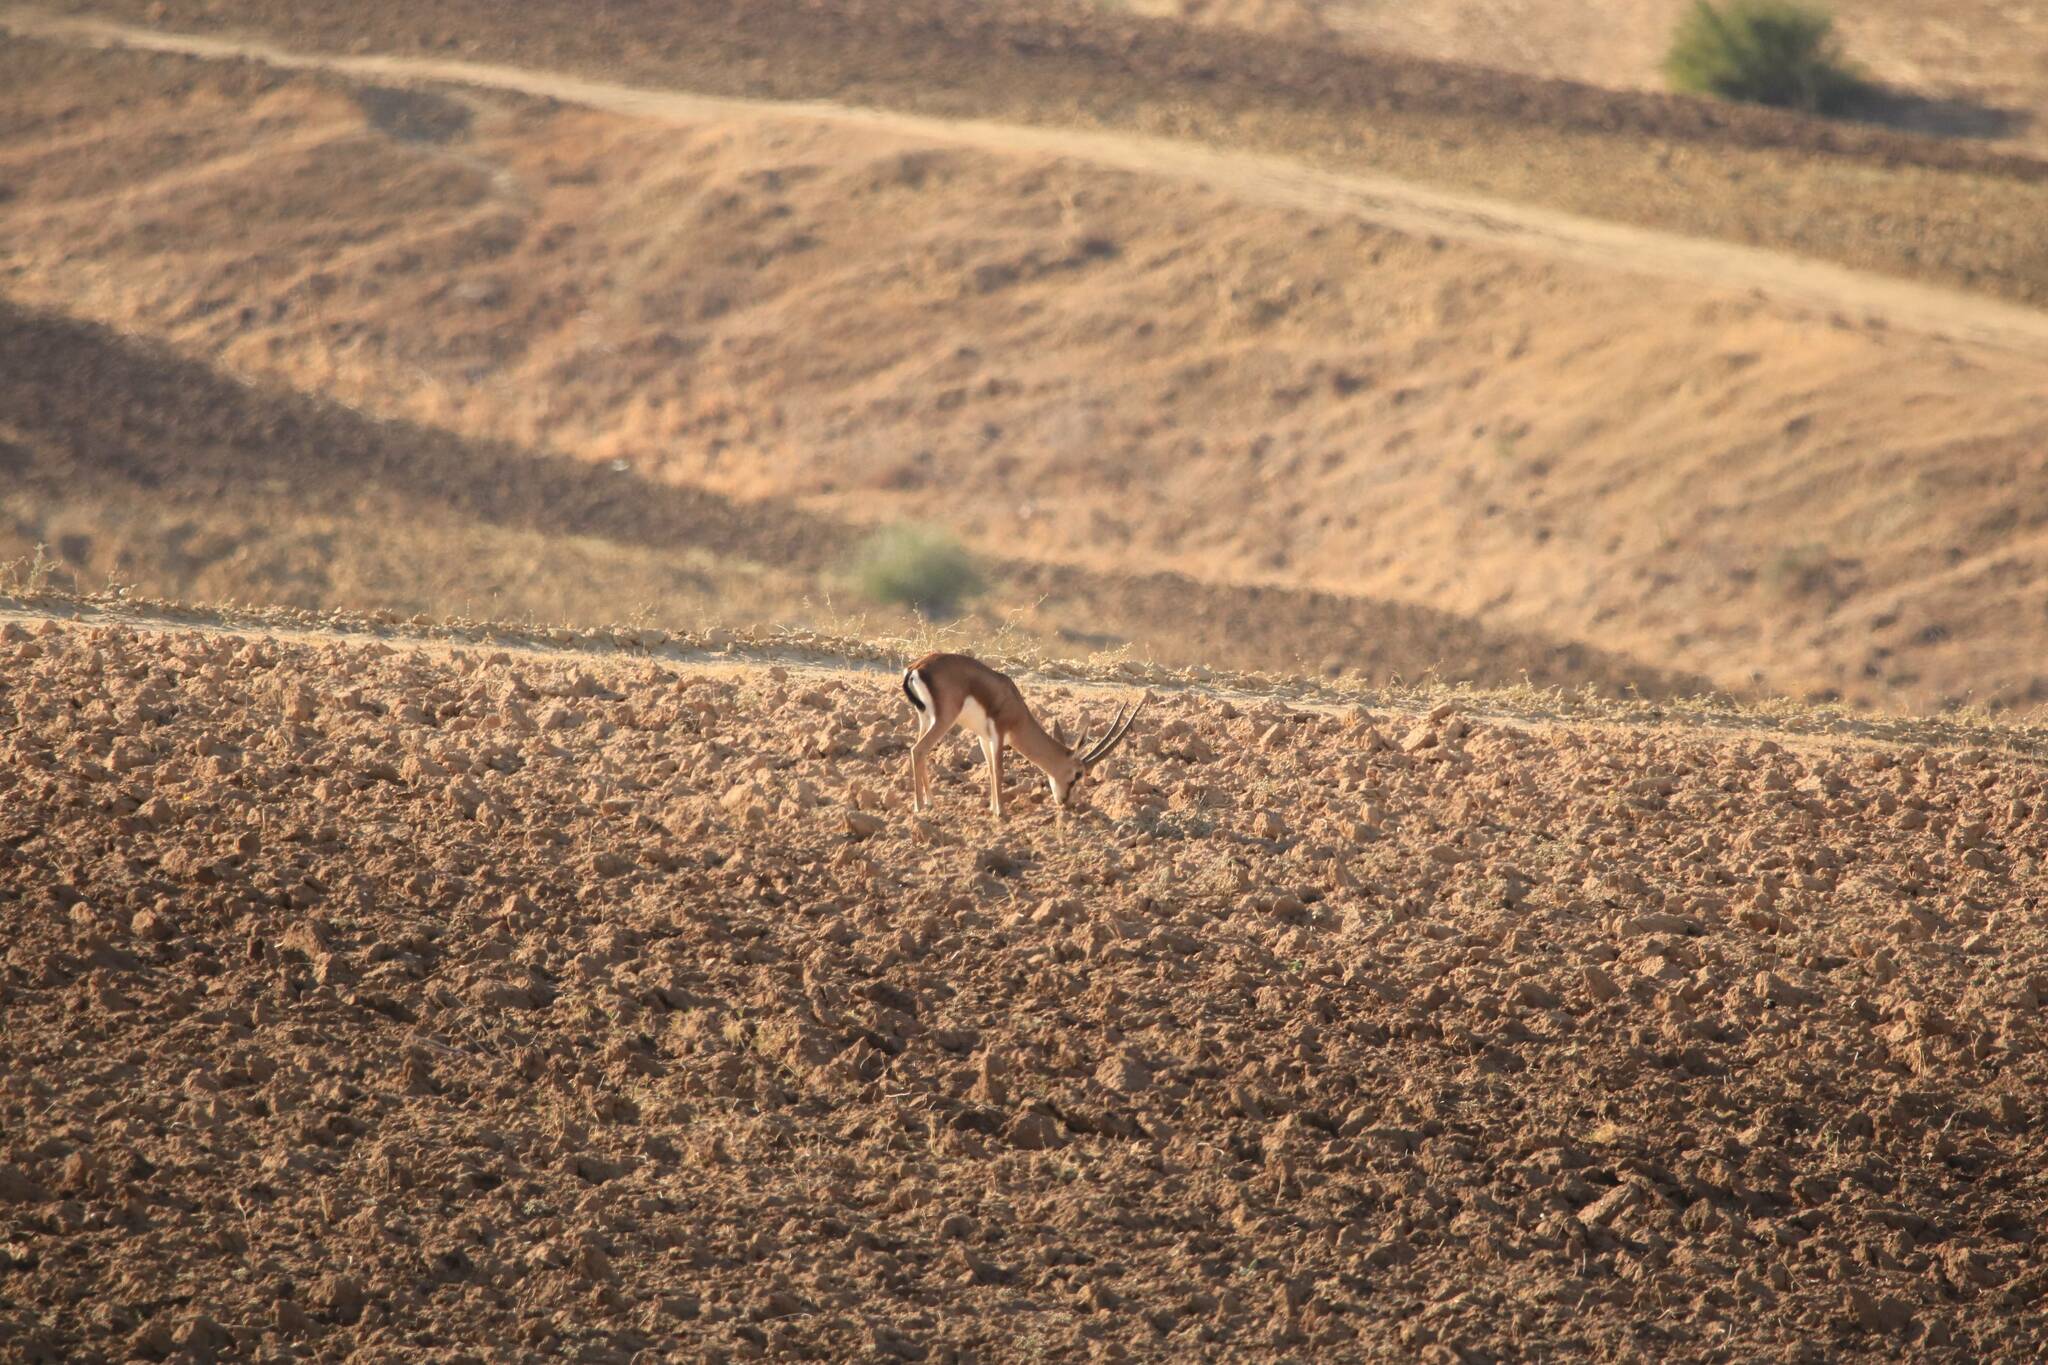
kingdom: Animalia
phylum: Chordata
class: Mammalia
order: Artiodactyla
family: Bovidae
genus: Gazella
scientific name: Gazella cuvieri
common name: Cuvier's gazelle
